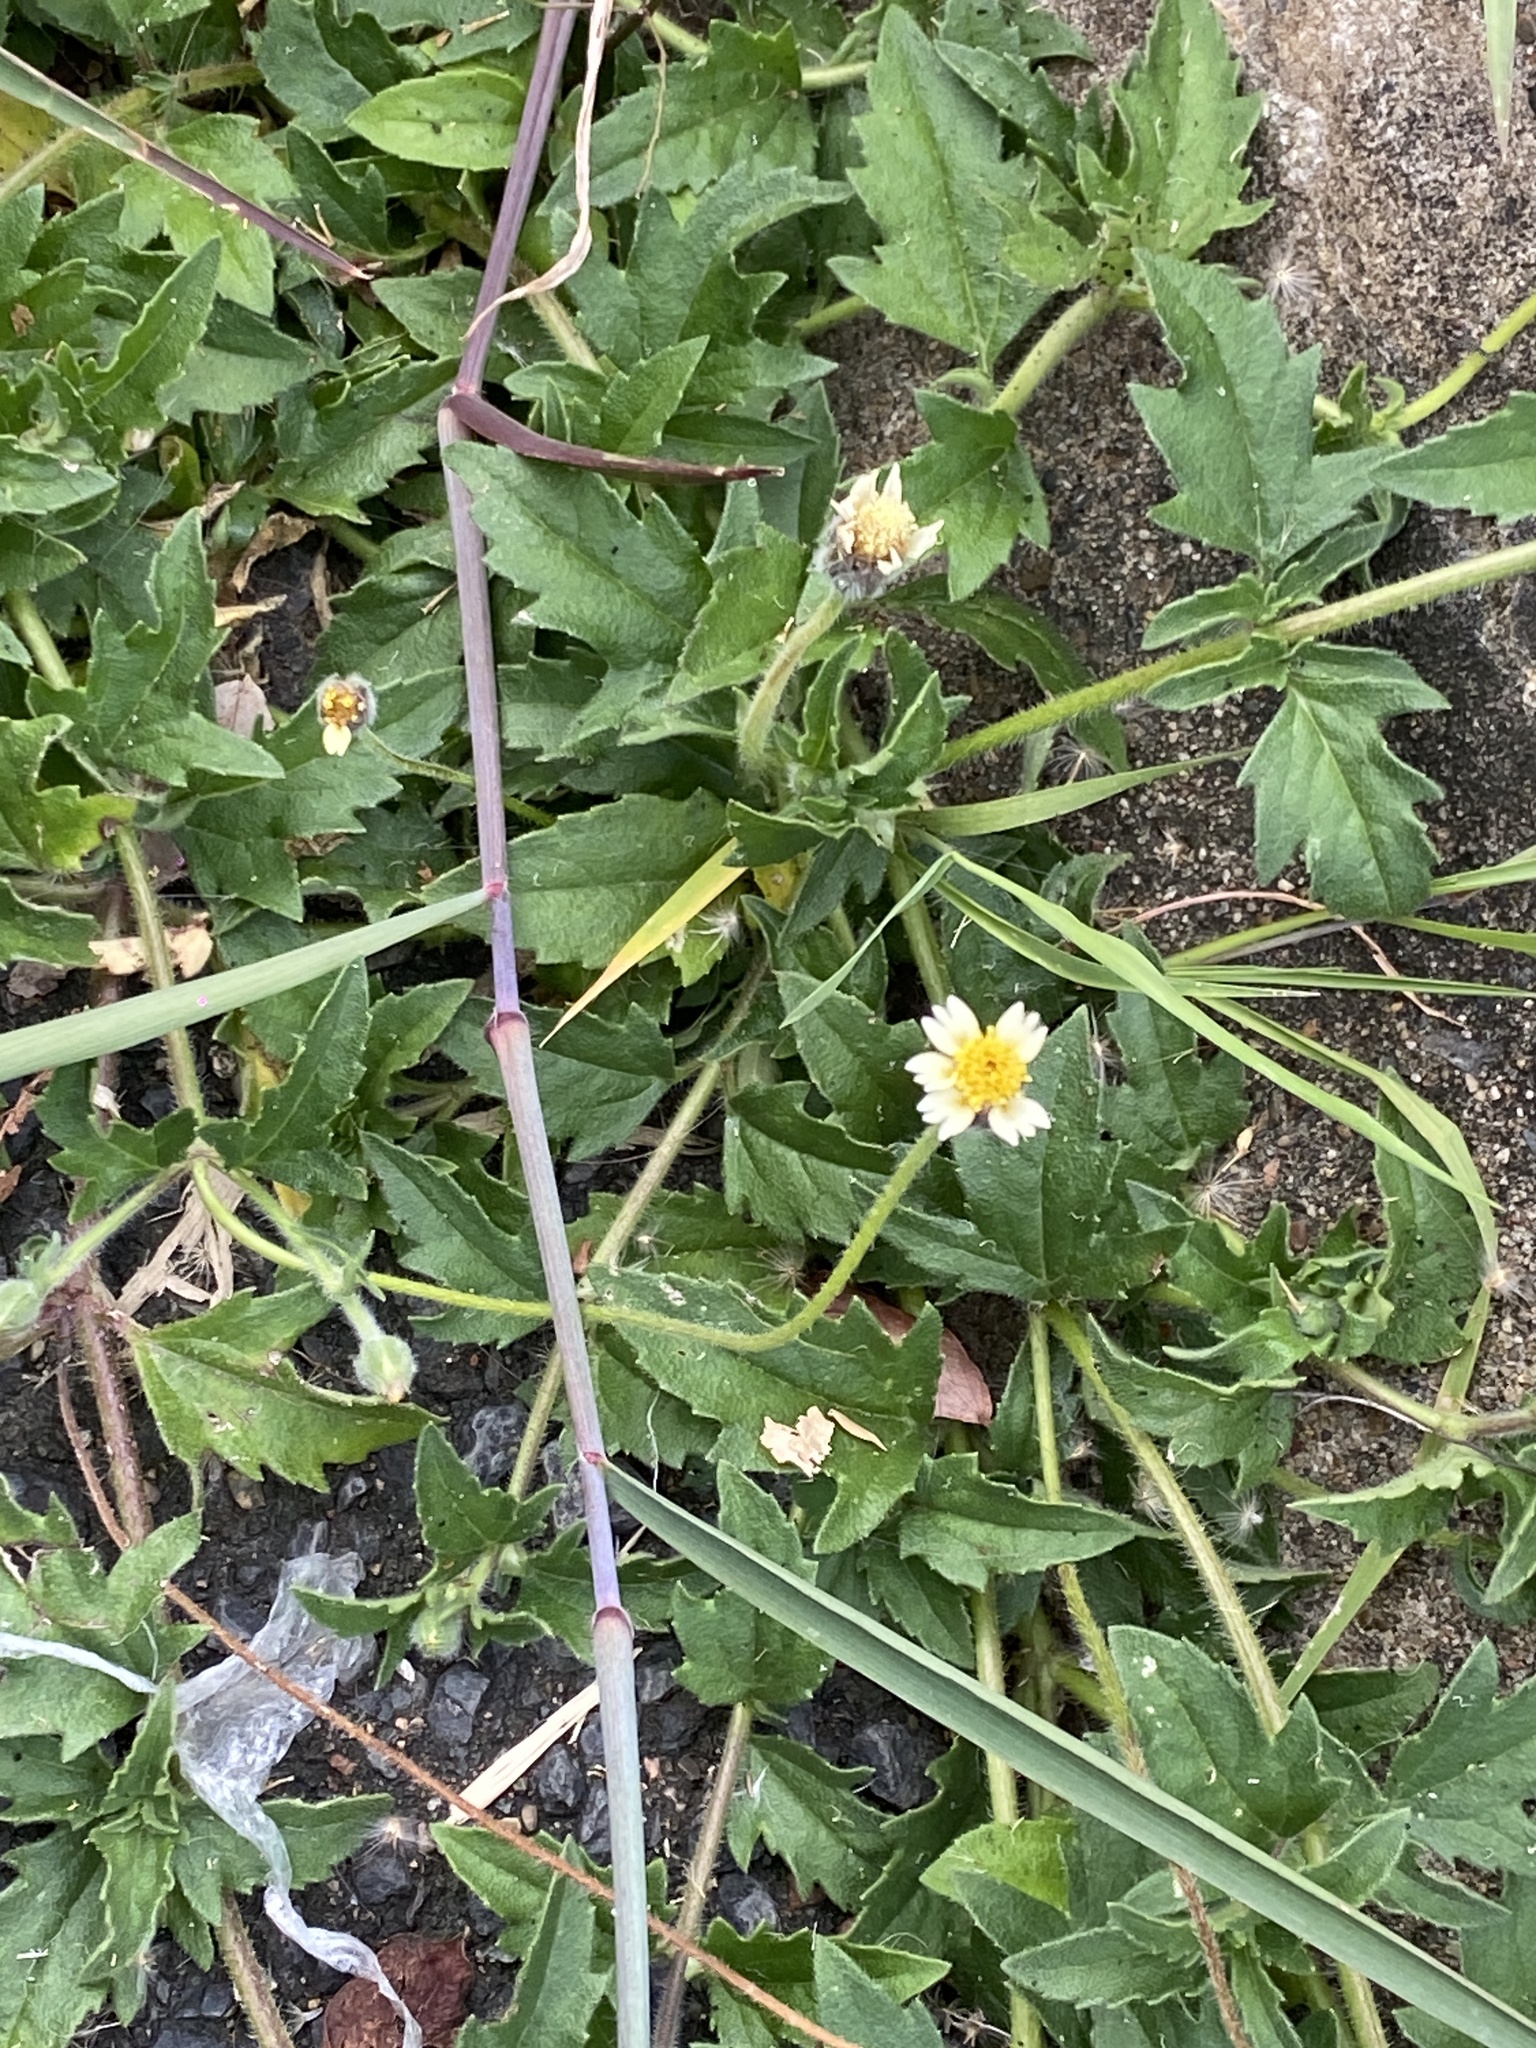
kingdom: Plantae
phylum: Tracheophyta
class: Magnoliopsida
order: Asterales
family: Asteraceae
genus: Tridax
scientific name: Tridax procumbens
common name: Coatbuttons
